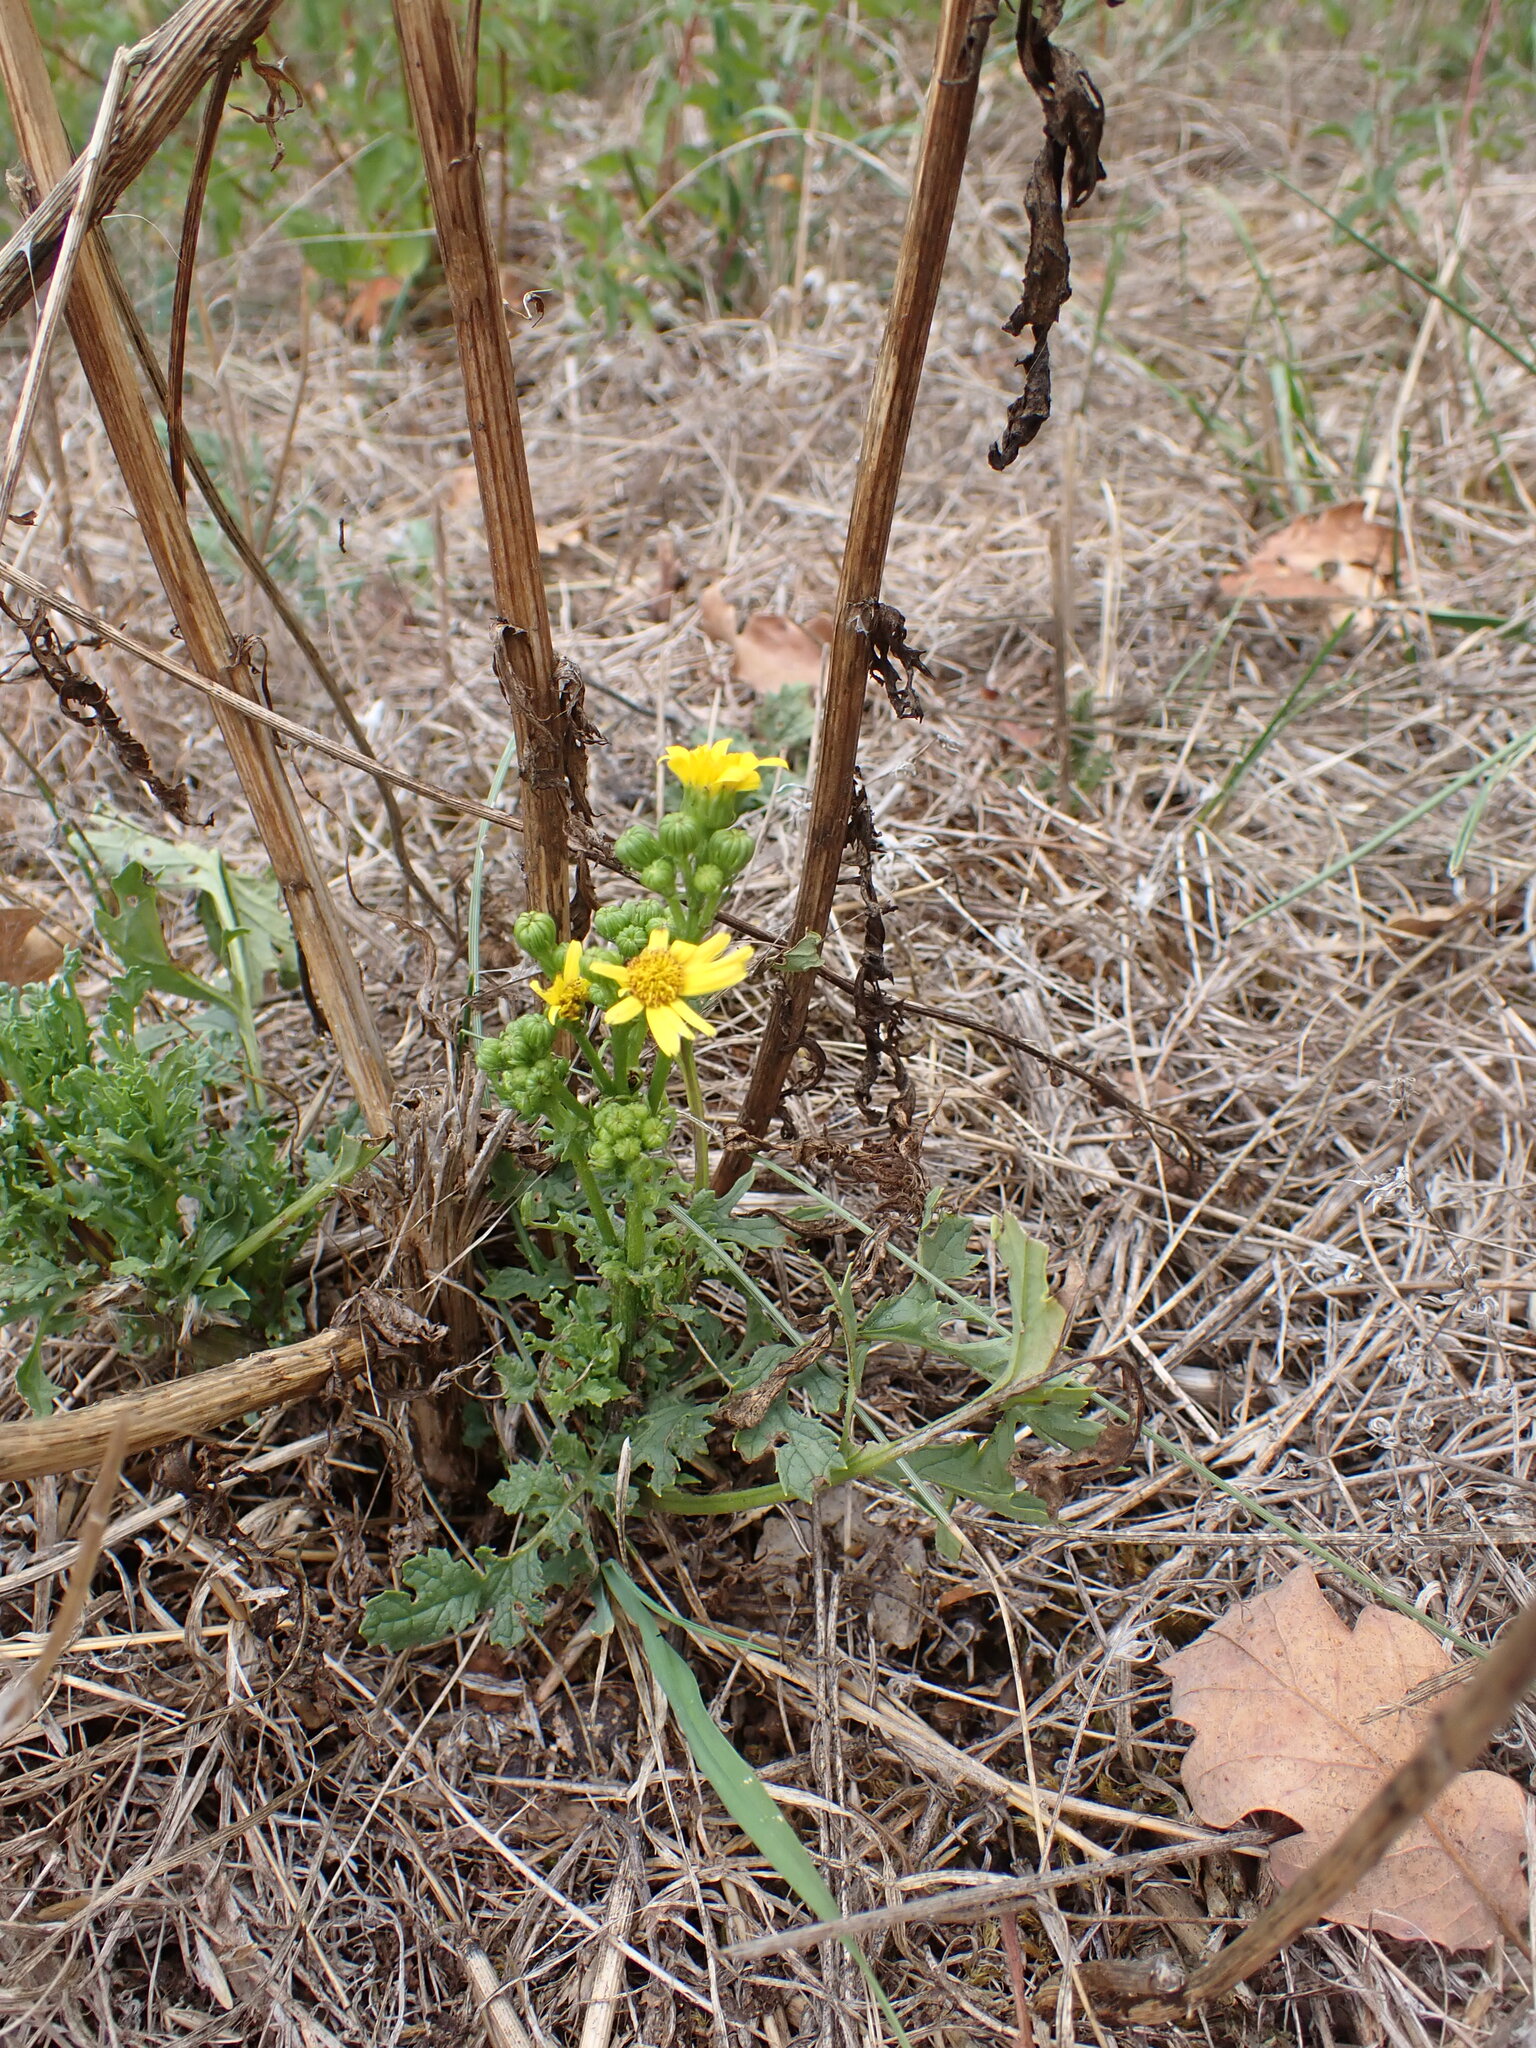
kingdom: Plantae
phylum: Tracheophyta
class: Magnoliopsida
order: Asterales
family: Asteraceae
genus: Jacobaea
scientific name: Jacobaea vulgaris
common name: Stinking willie
